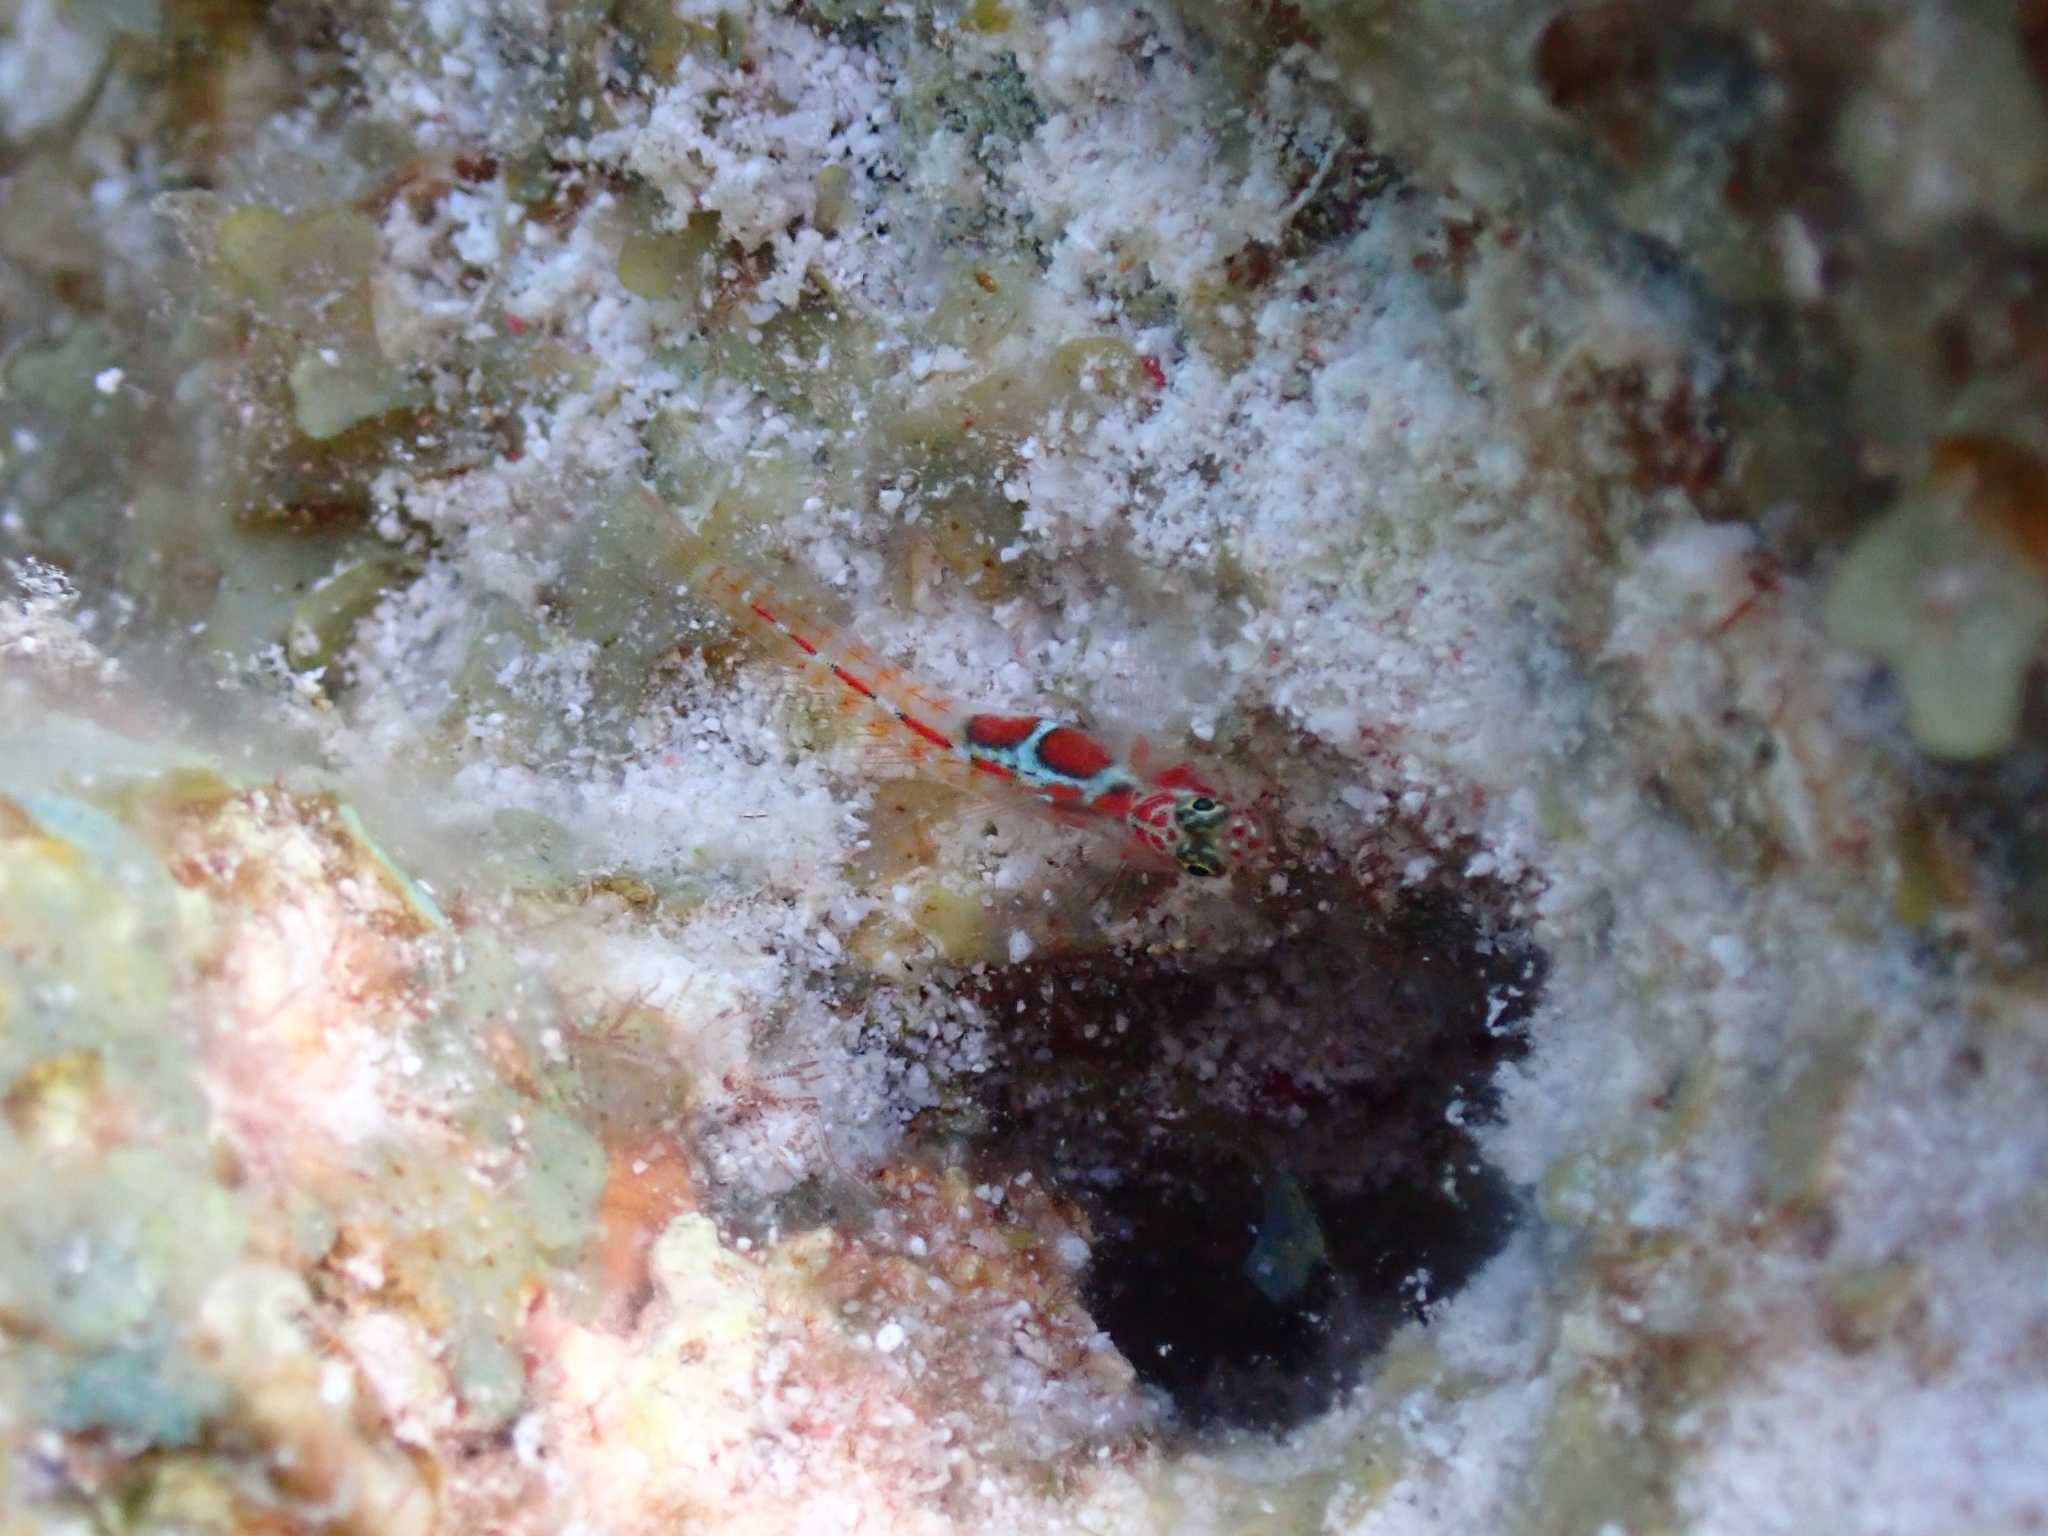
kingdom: Animalia
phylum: Chordata
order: Perciformes
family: Gobiidae
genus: Tigrigobius
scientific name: Tigrigobius dilepis
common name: Orangeside goby
